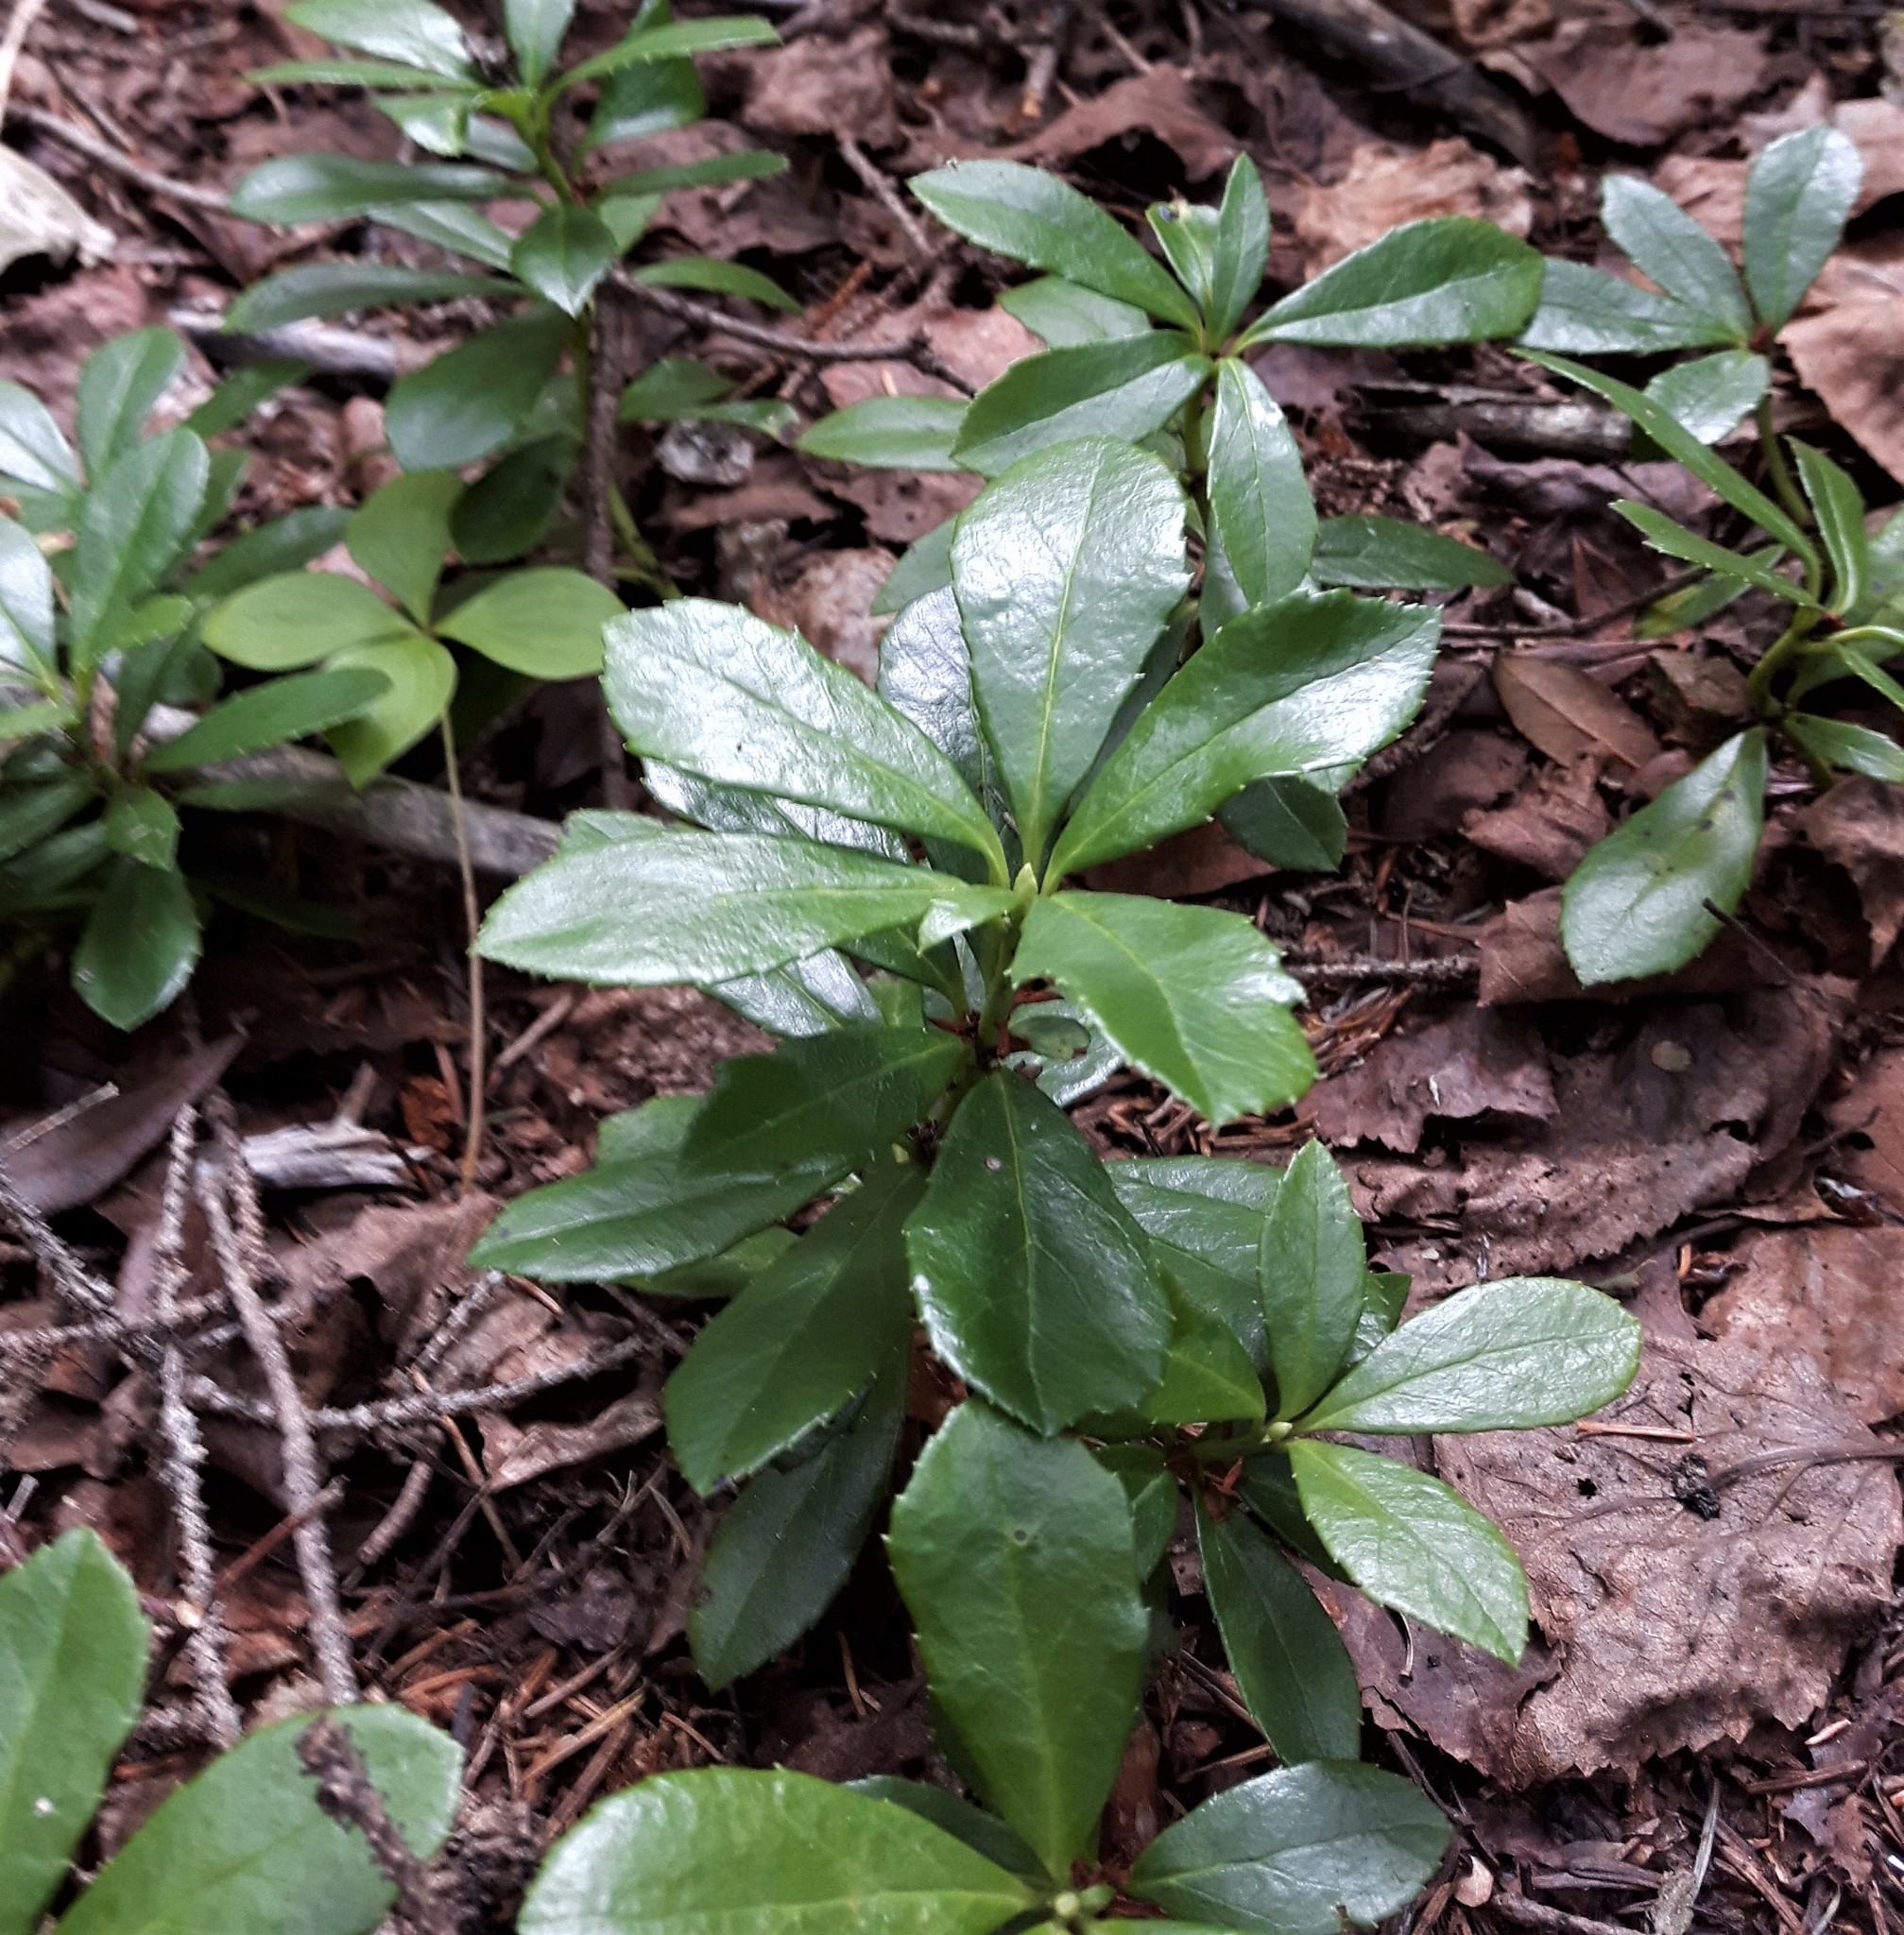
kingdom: Plantae
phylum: Tracheophyta
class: Magnoliopsida
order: Ericales
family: Ericaceae
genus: Chimaphila
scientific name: Chimaphila umbellata
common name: Pipsissewa
